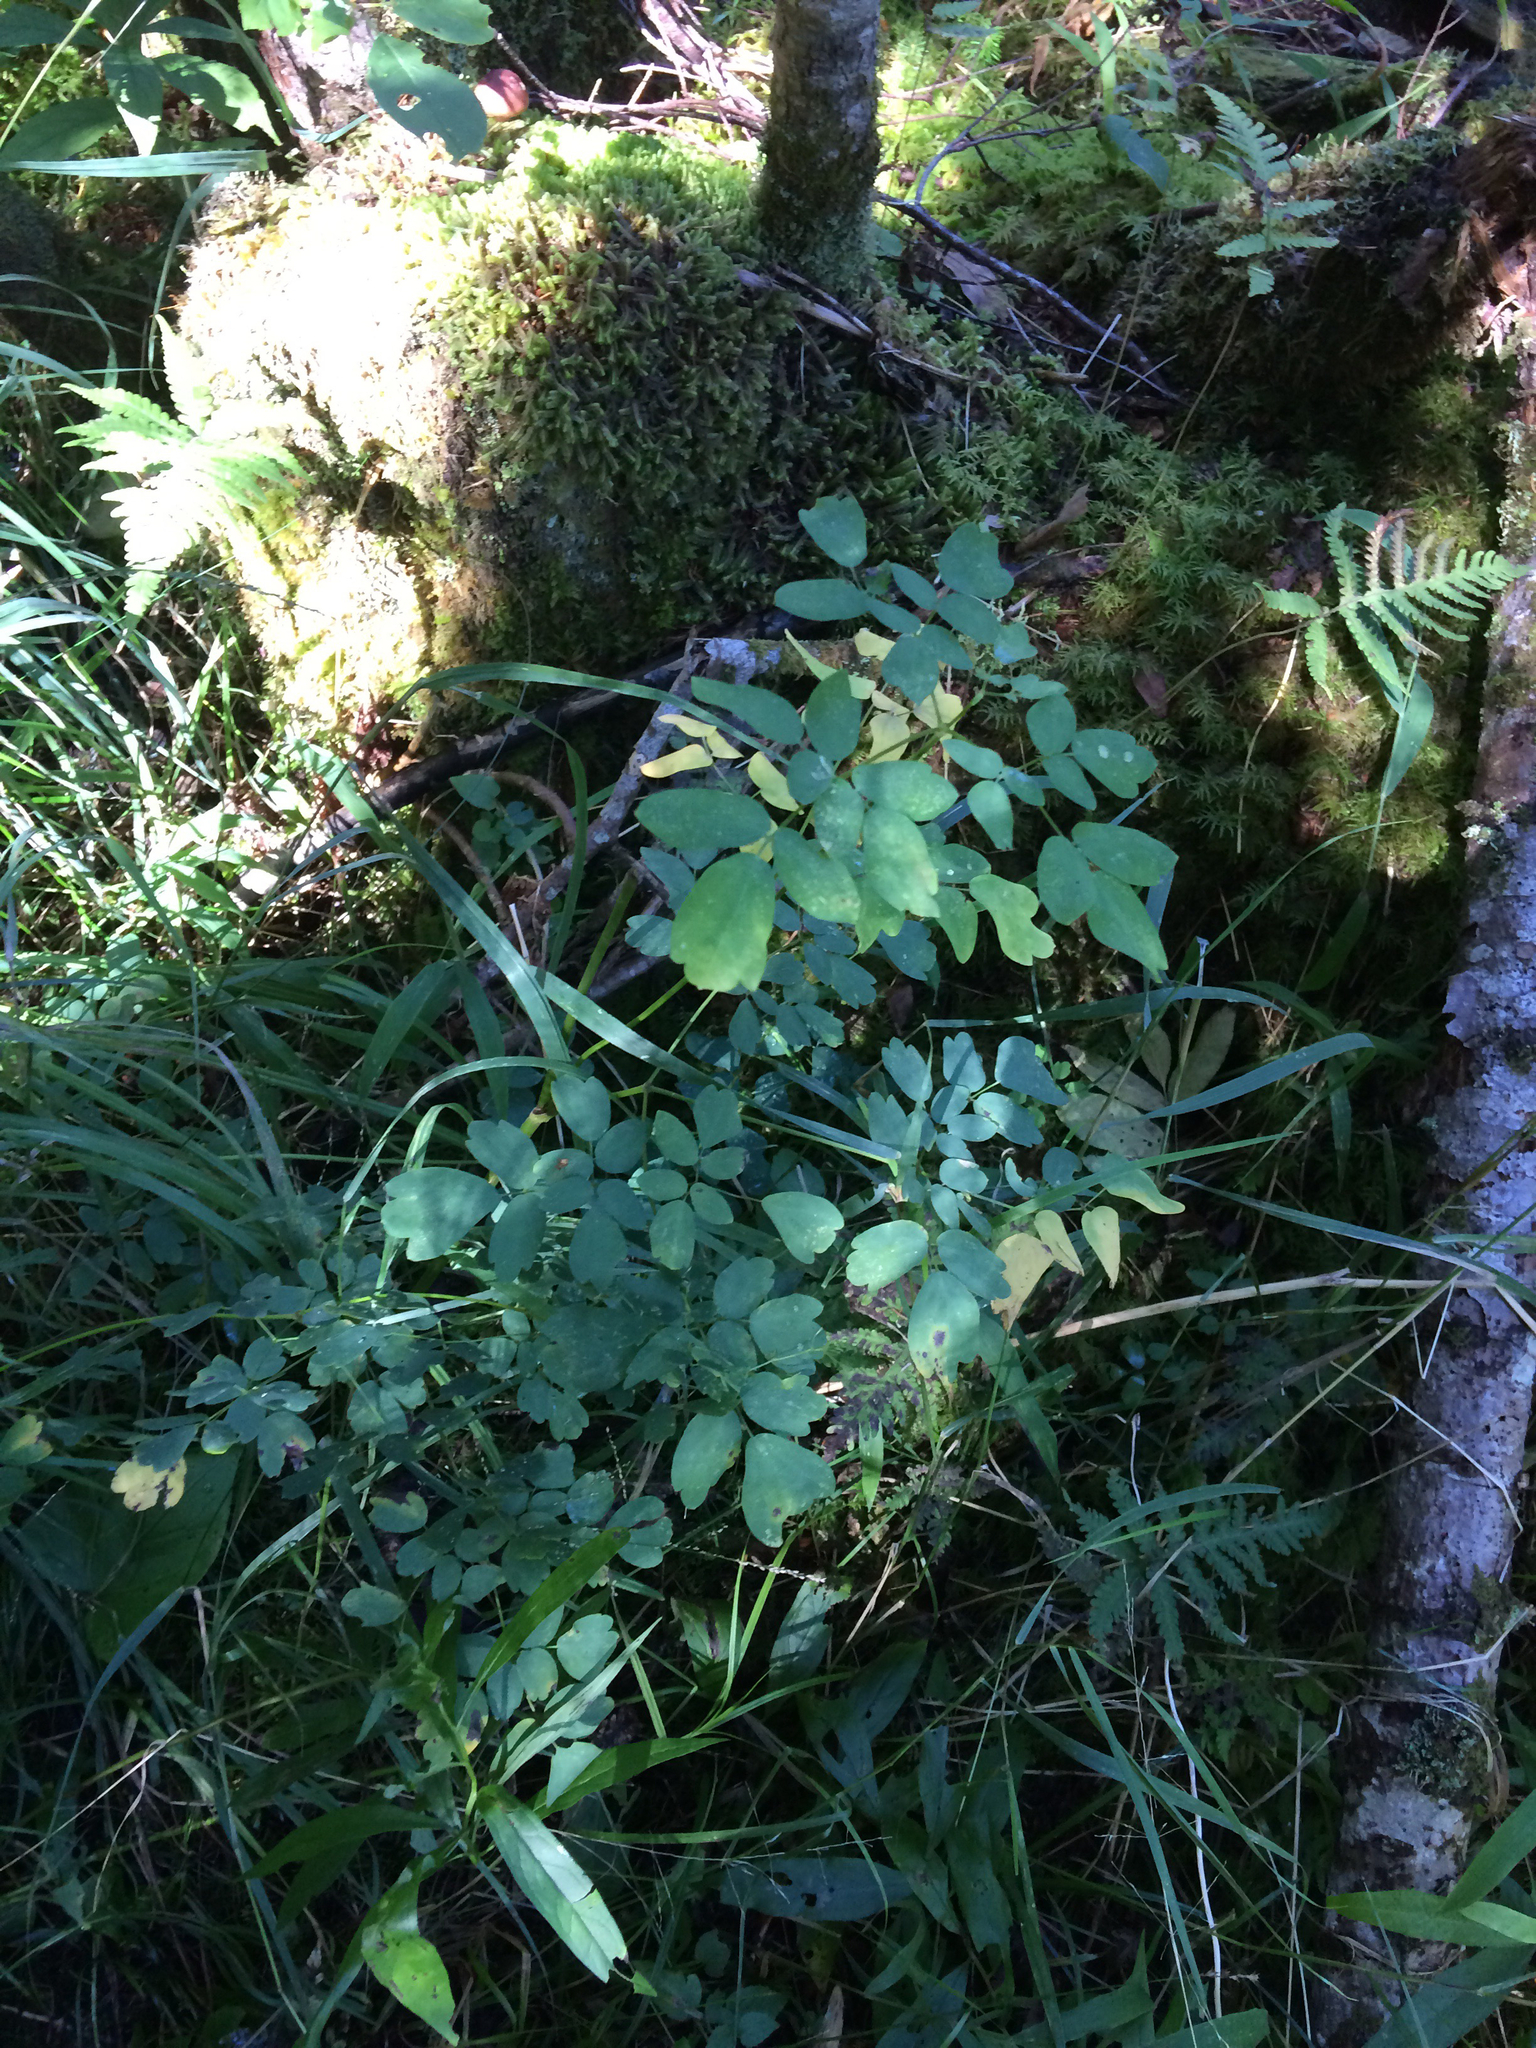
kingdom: Plantae
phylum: Tracheophyta
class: Magnoliopsida
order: Ranunculales
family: Ranunculaceae
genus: Thalictrum
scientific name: Thalictrum pubescens
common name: King-of-the-meadow
